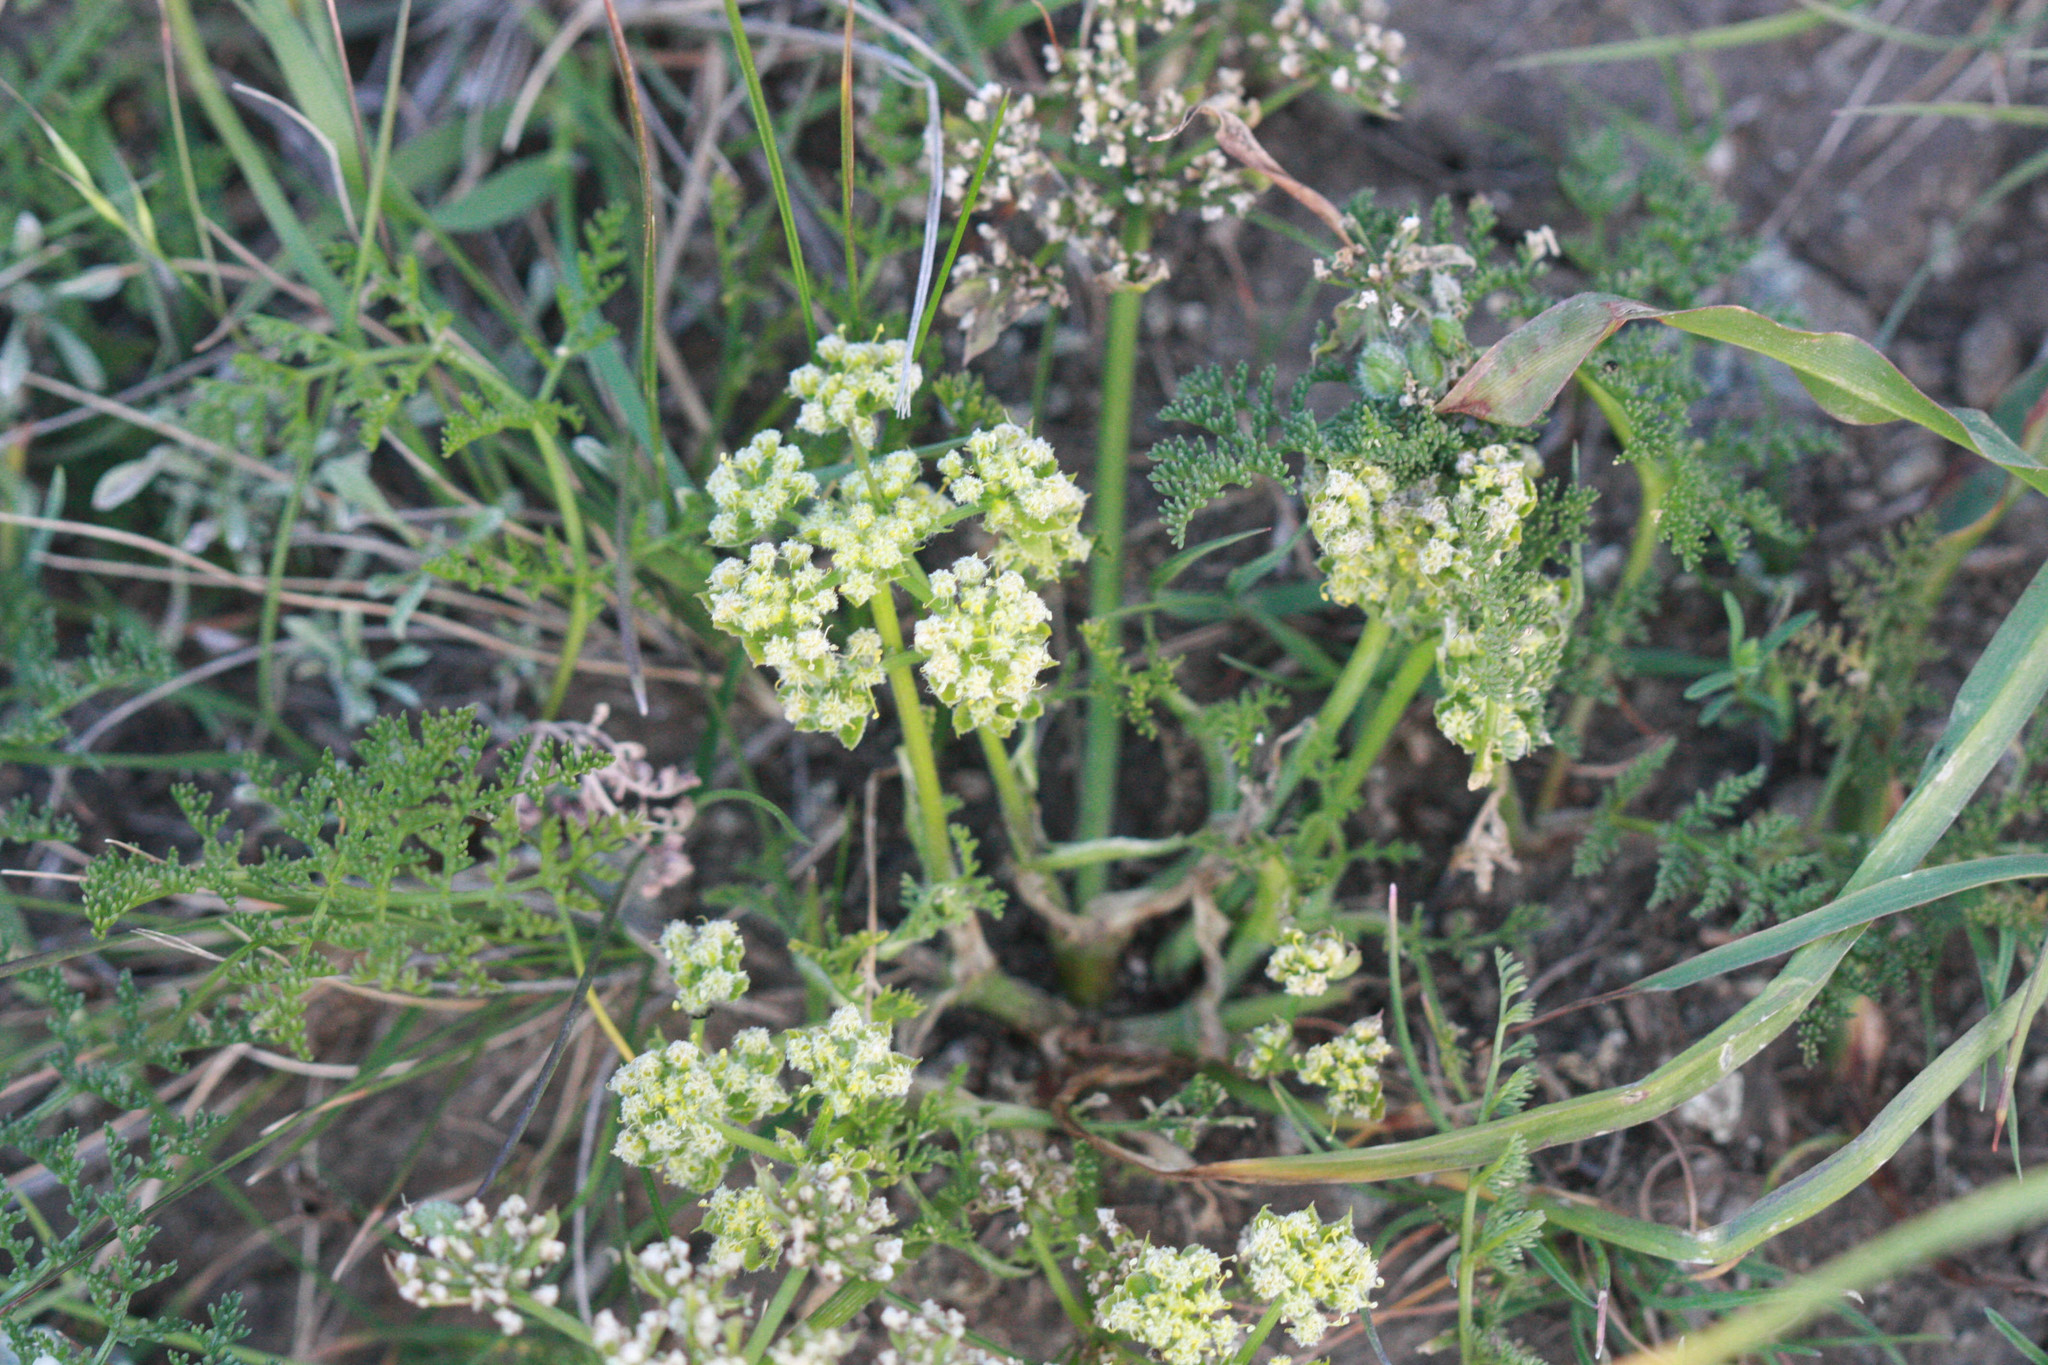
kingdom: Plantae
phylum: Tracheophyta
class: Magnoliopsida
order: Apiales
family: Apiaceae
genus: Lomatium
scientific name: Lomatium dasycarpum
